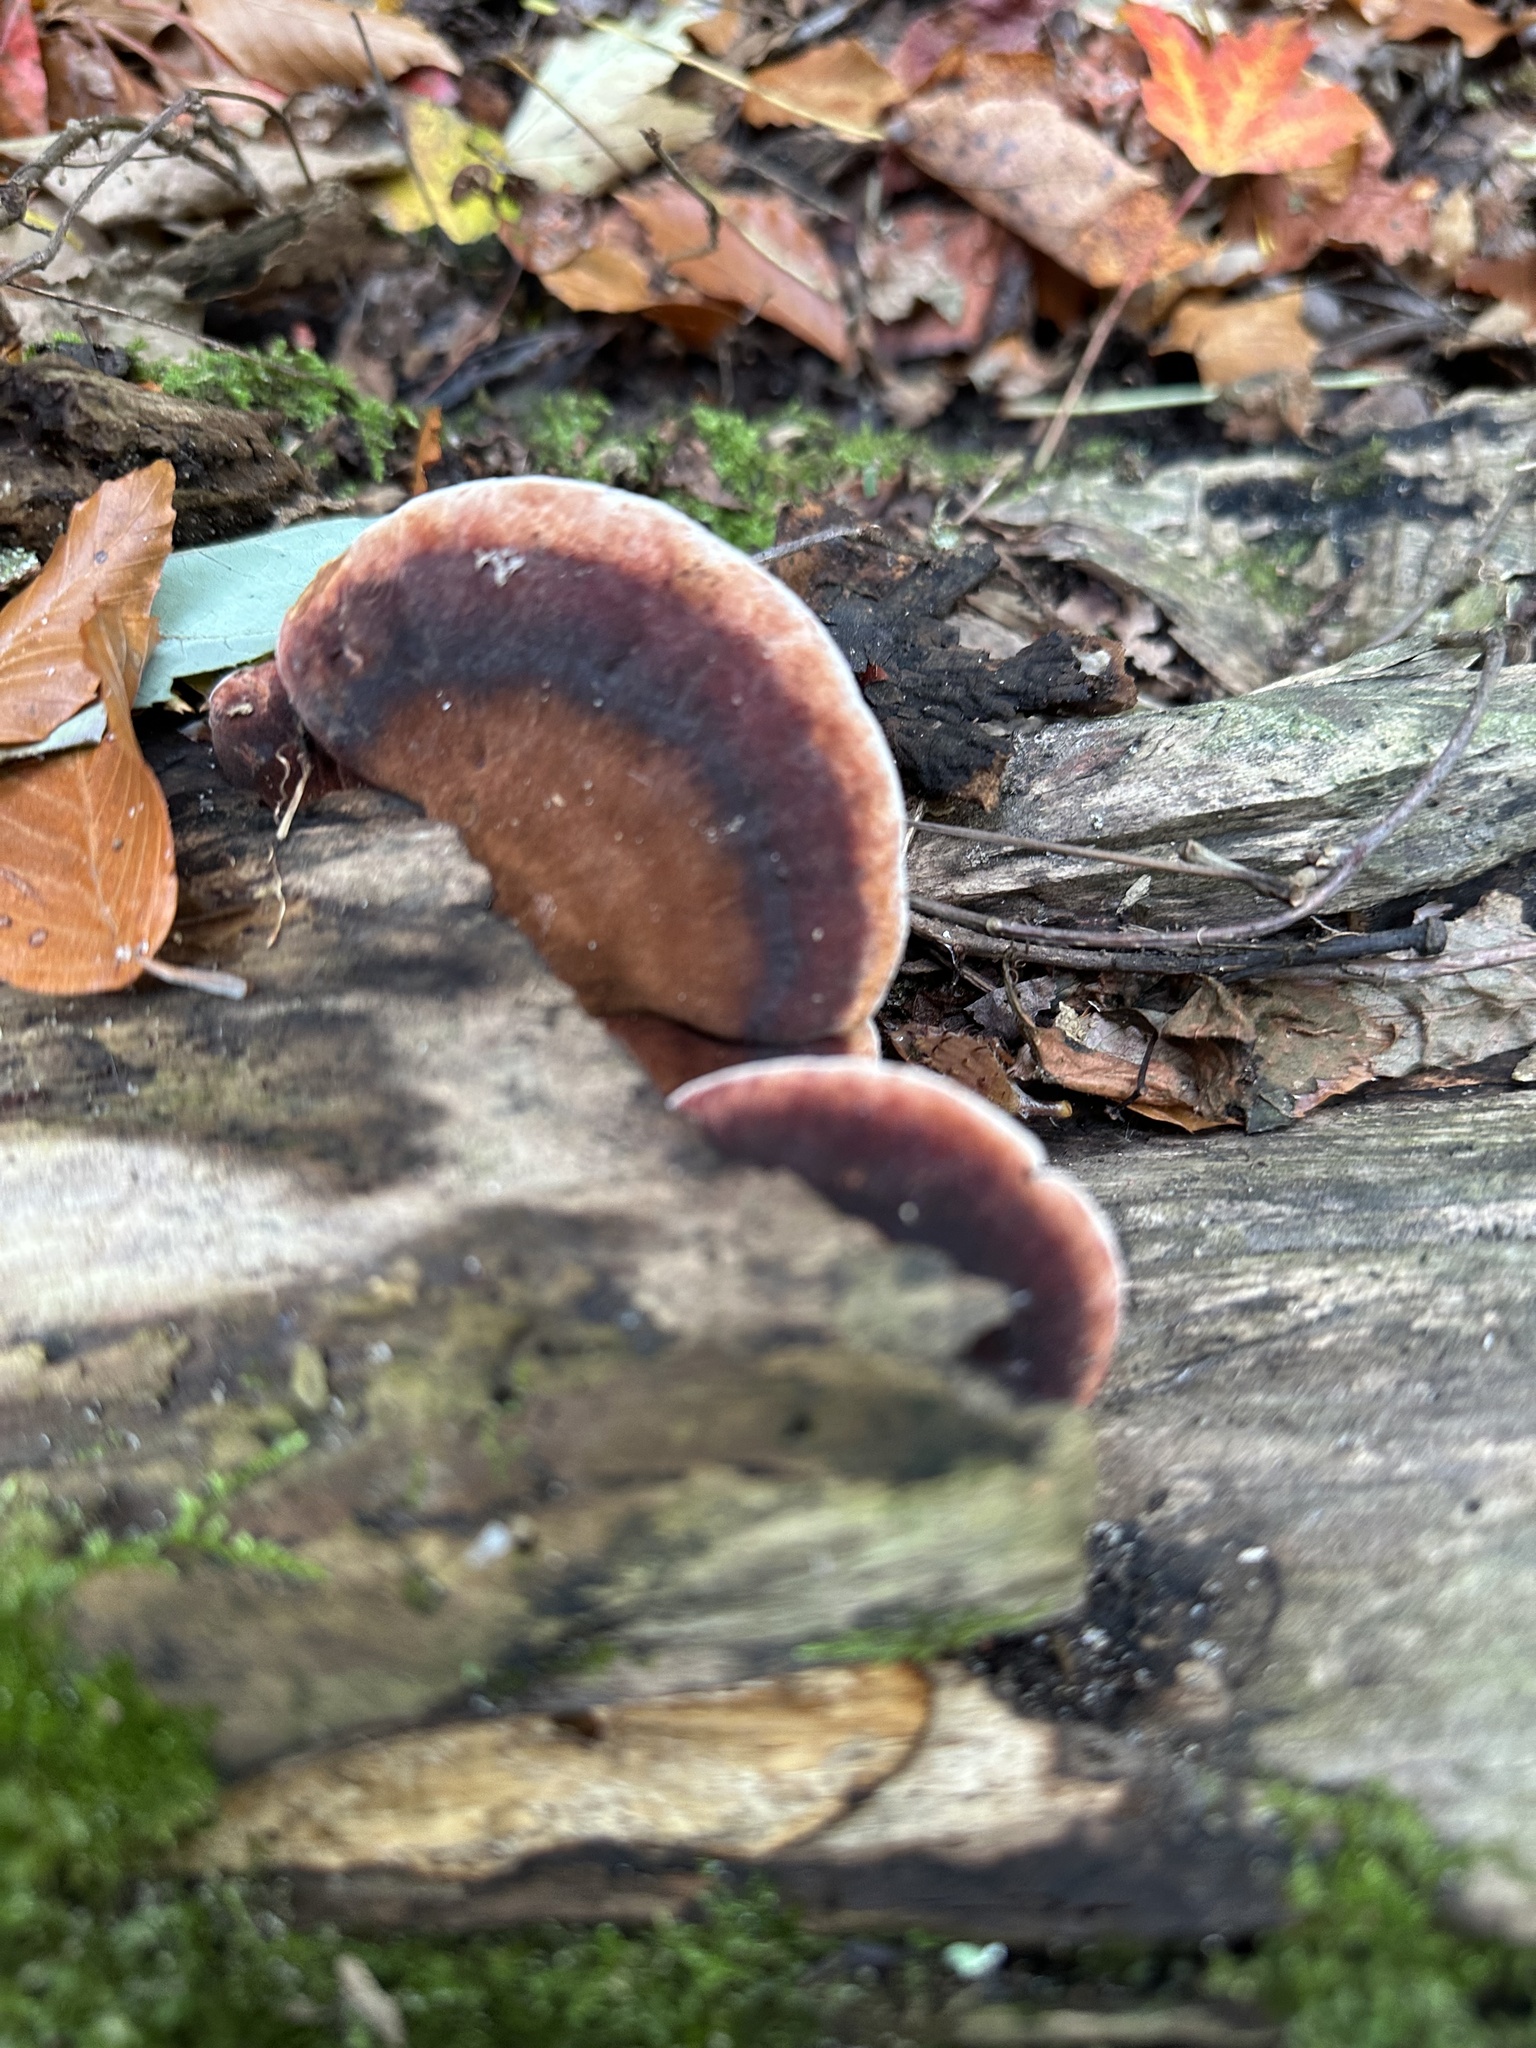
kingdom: Fungi
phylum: Basidiomycota
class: Agaricomycetes
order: Polyporales
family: Ischnodermataceae
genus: Ischnoderma
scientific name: Ischnoderma resinosum
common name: Resinous polypore
